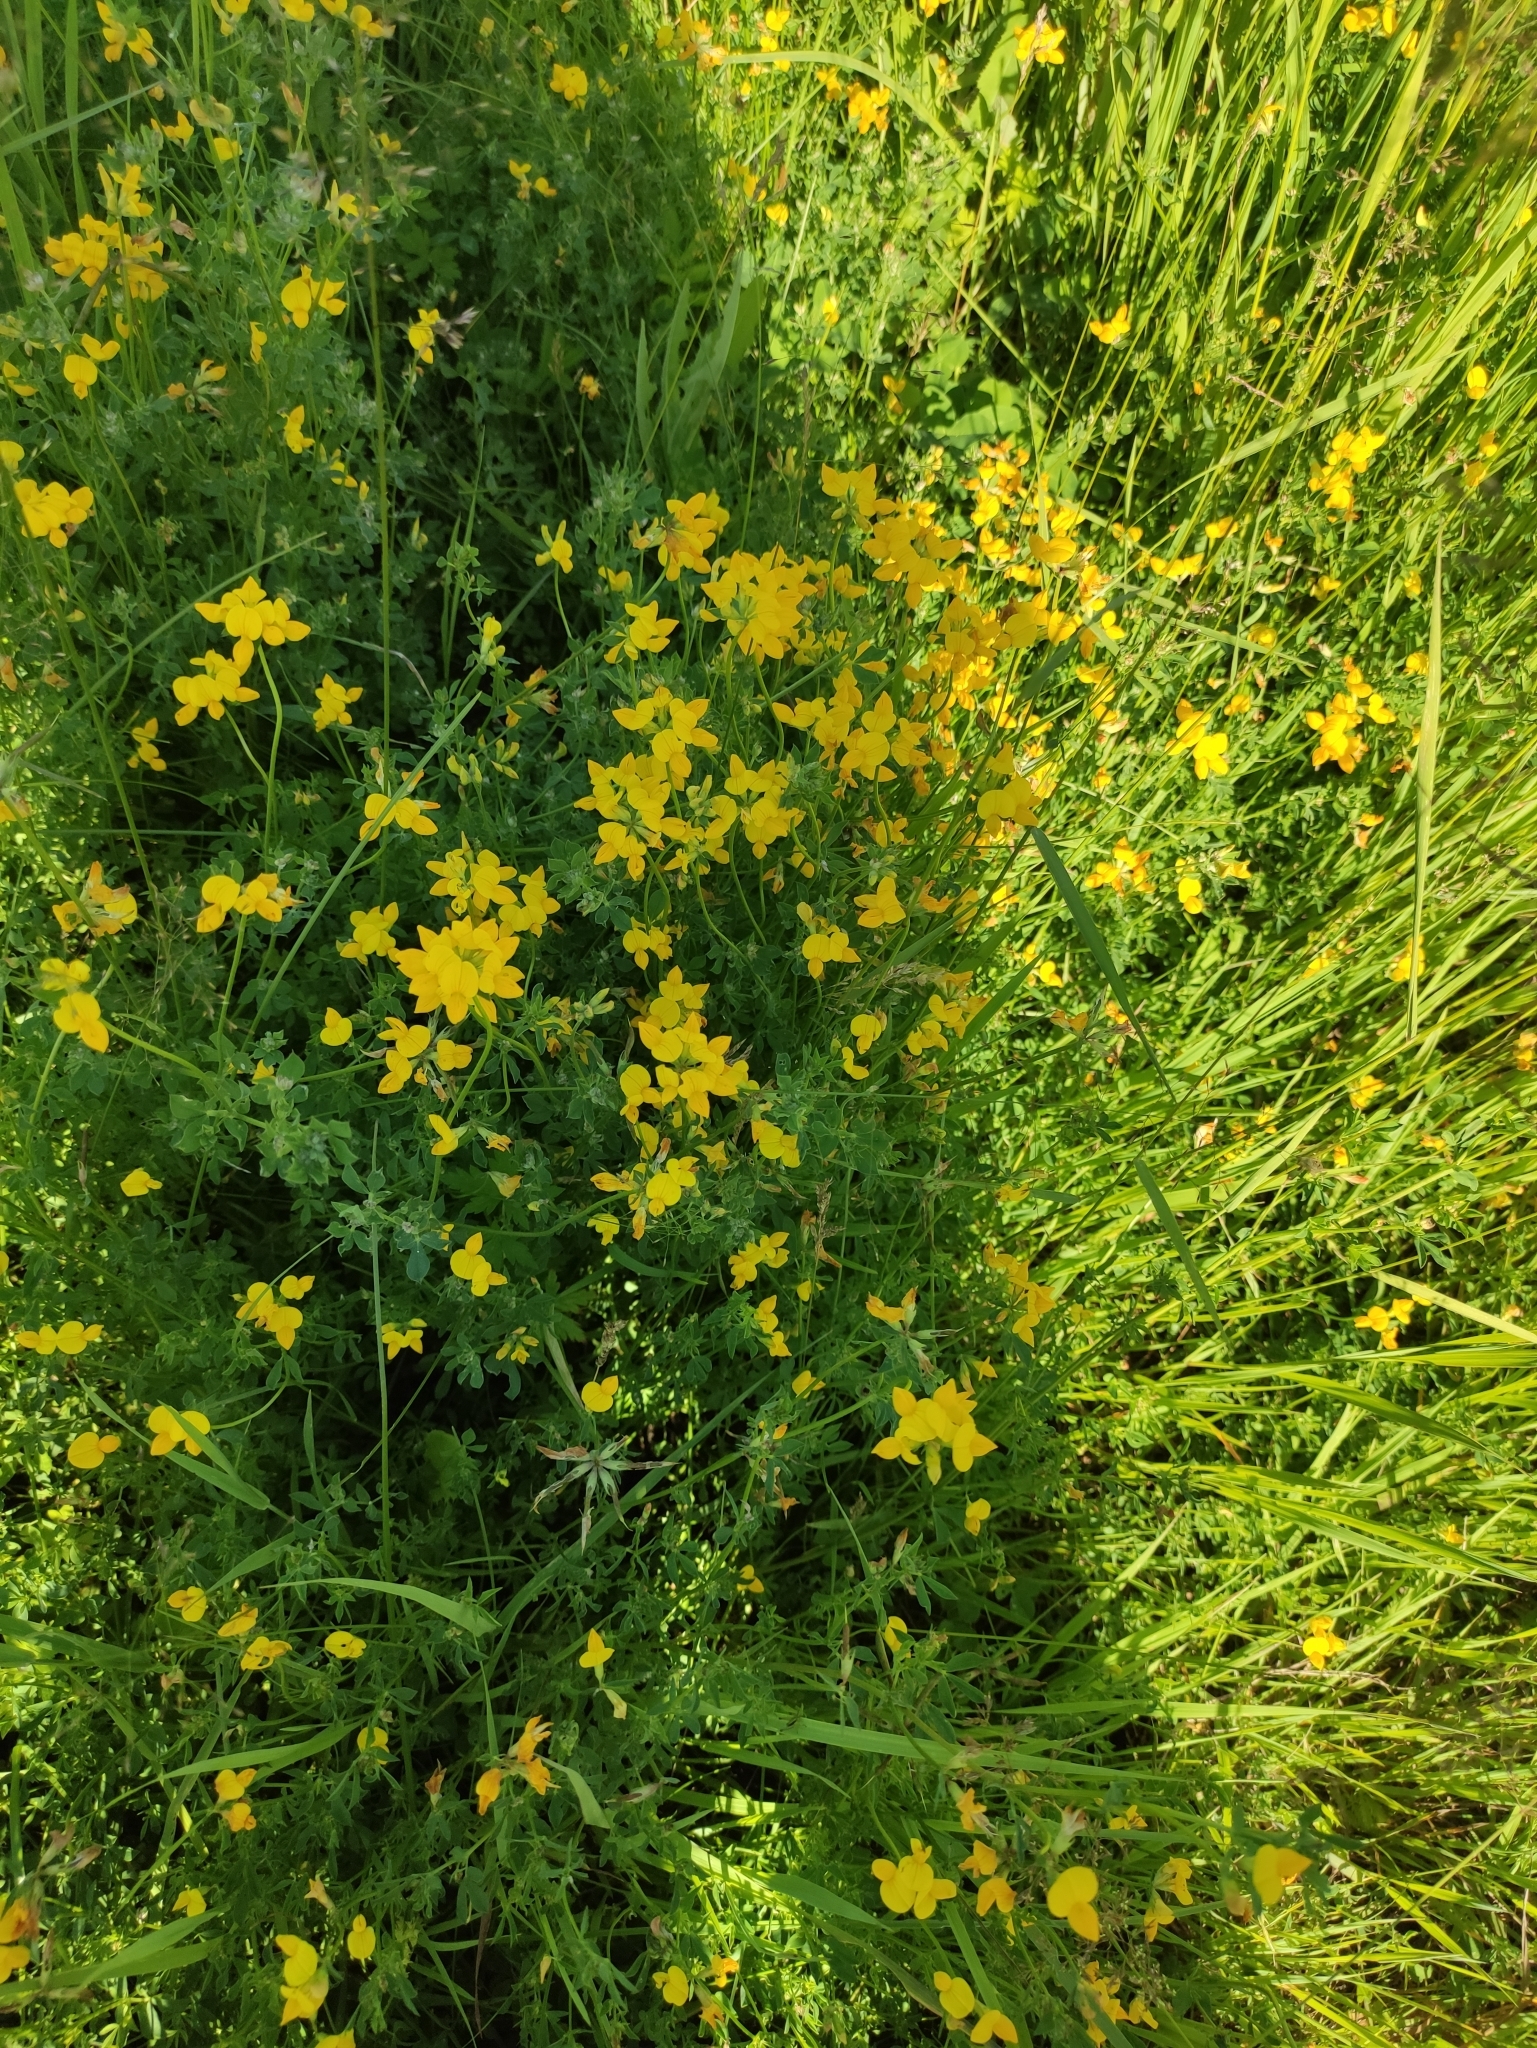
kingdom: Plantae
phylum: Tracheophyta
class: Magnoliopsida
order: Fabales
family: Fabaceae
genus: Lotus
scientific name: Lotus corniculatus
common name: Common bird's-foot-trefoil
